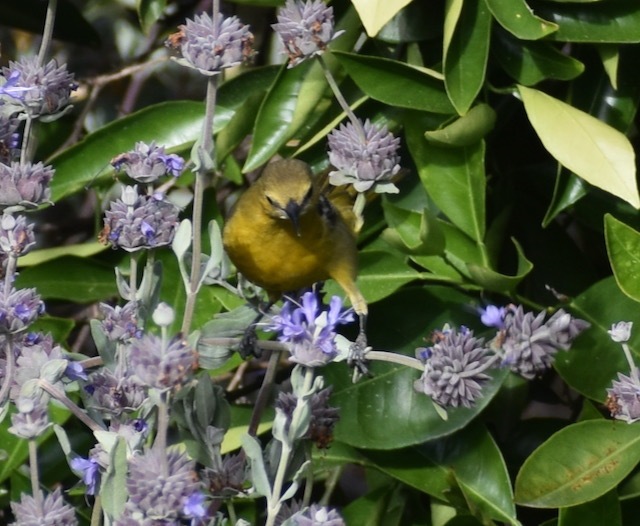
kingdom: Animalia
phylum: Chordata
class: Aves
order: Passeriformes
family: Icteridae
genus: Icterus
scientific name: Icterus cucullatus
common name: Hooded oriole
